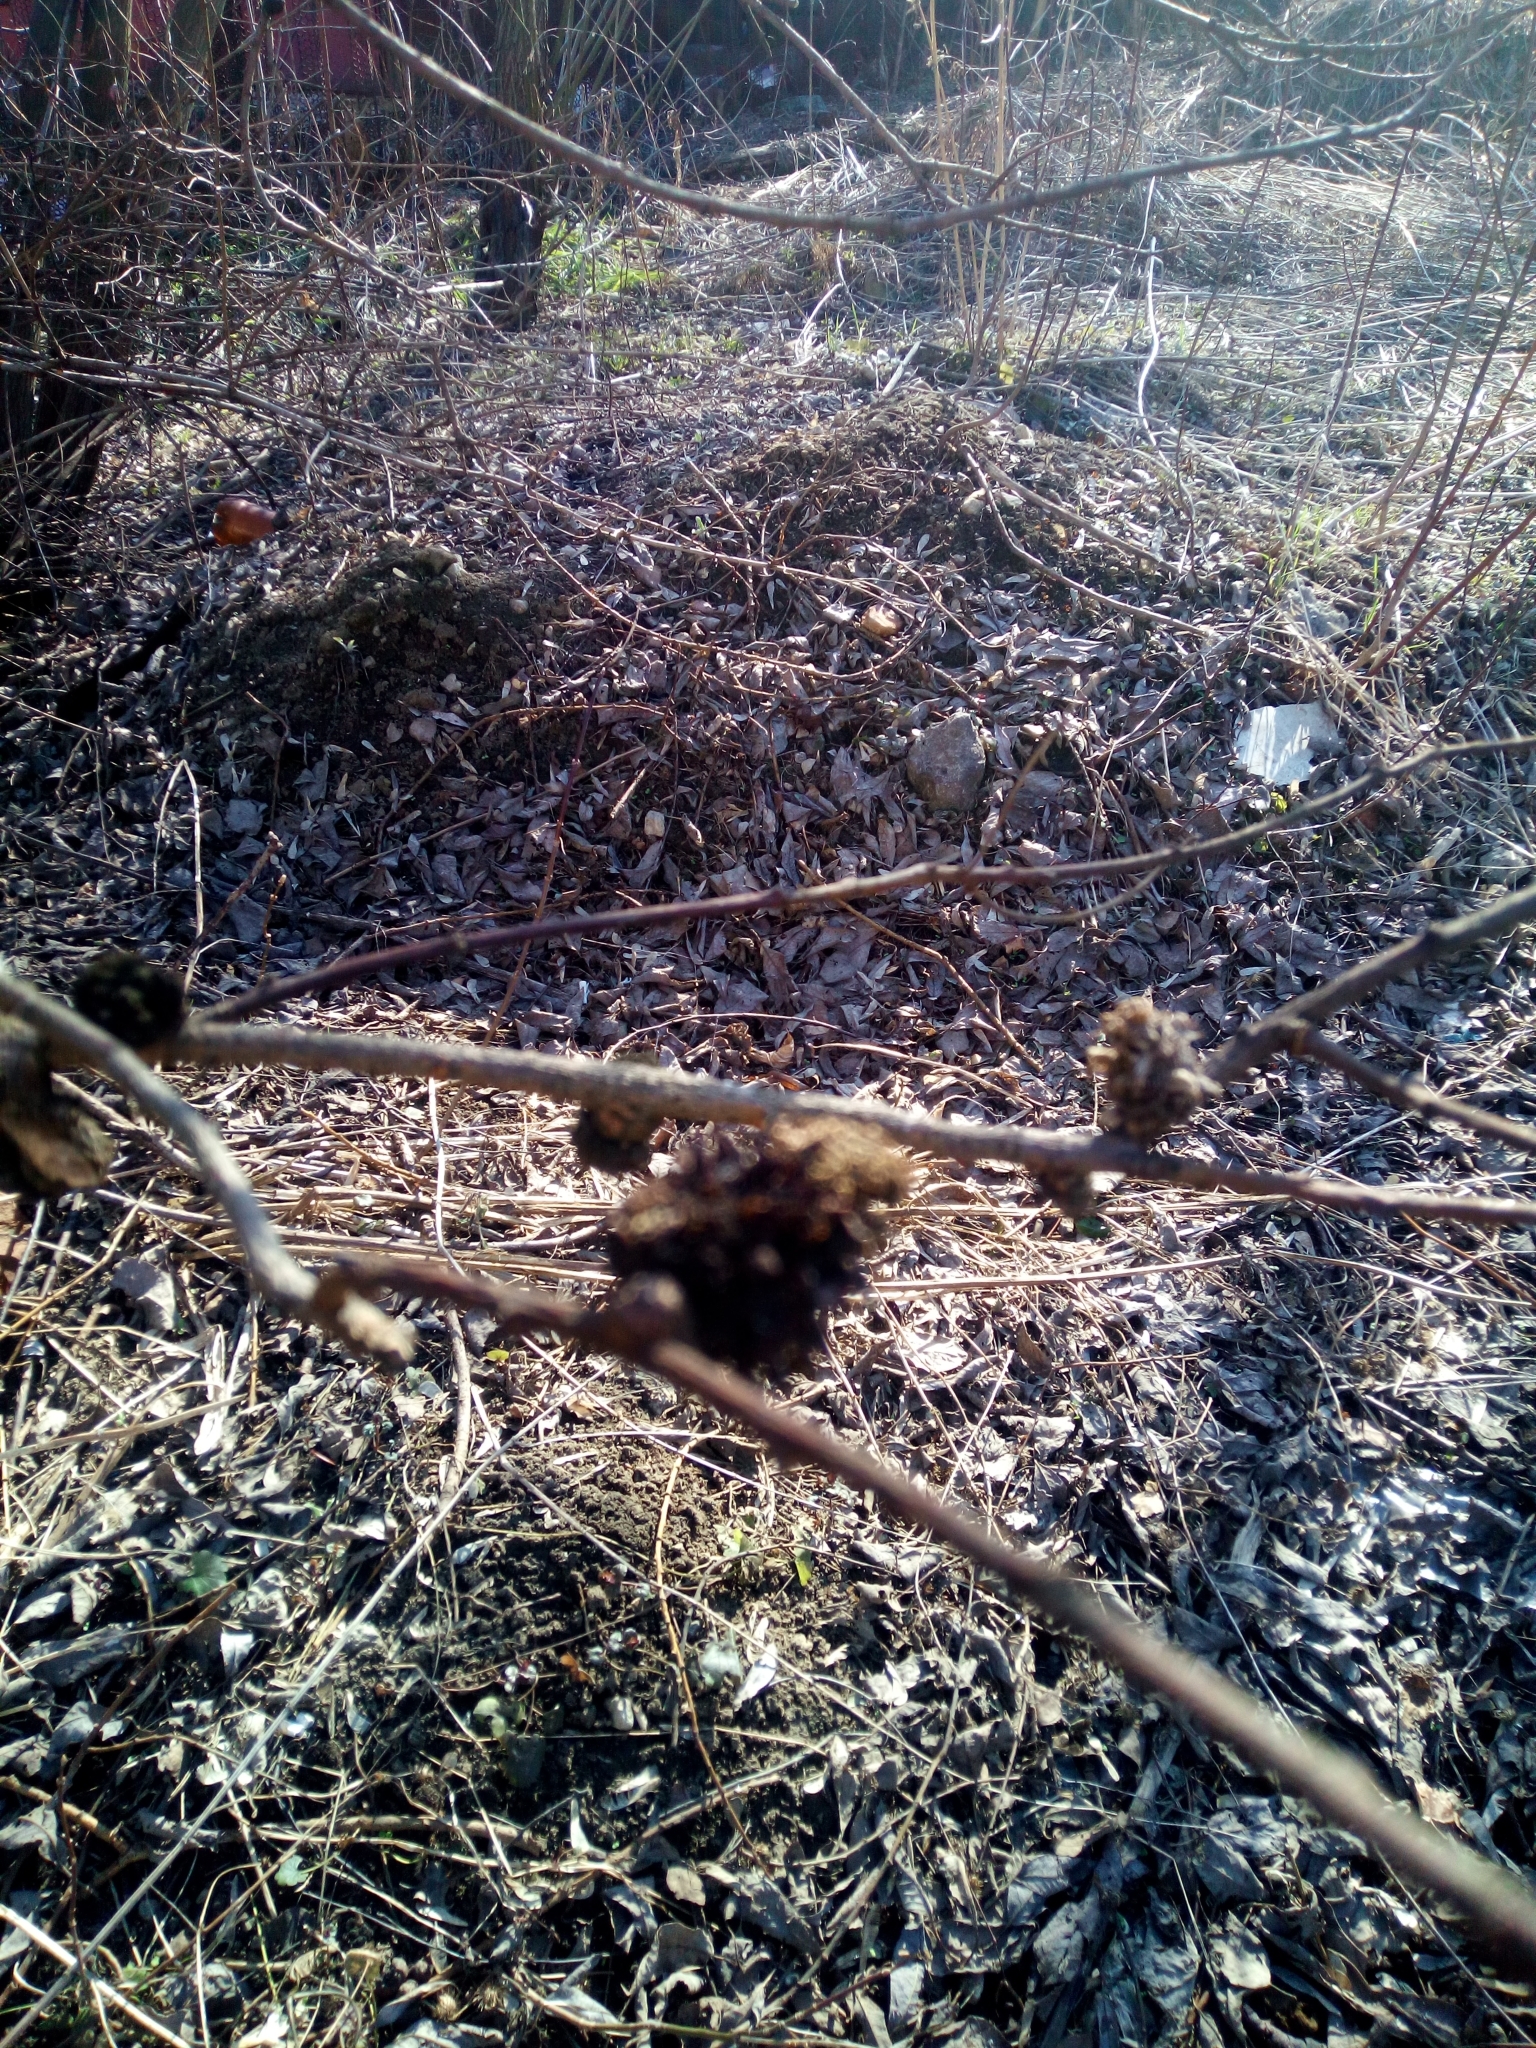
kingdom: Animalia
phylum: Arthropoda
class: Insecta
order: Hymenoptera
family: Cynipidae
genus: Andricus
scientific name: Andricus foecundatrix
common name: Artichoke gall
